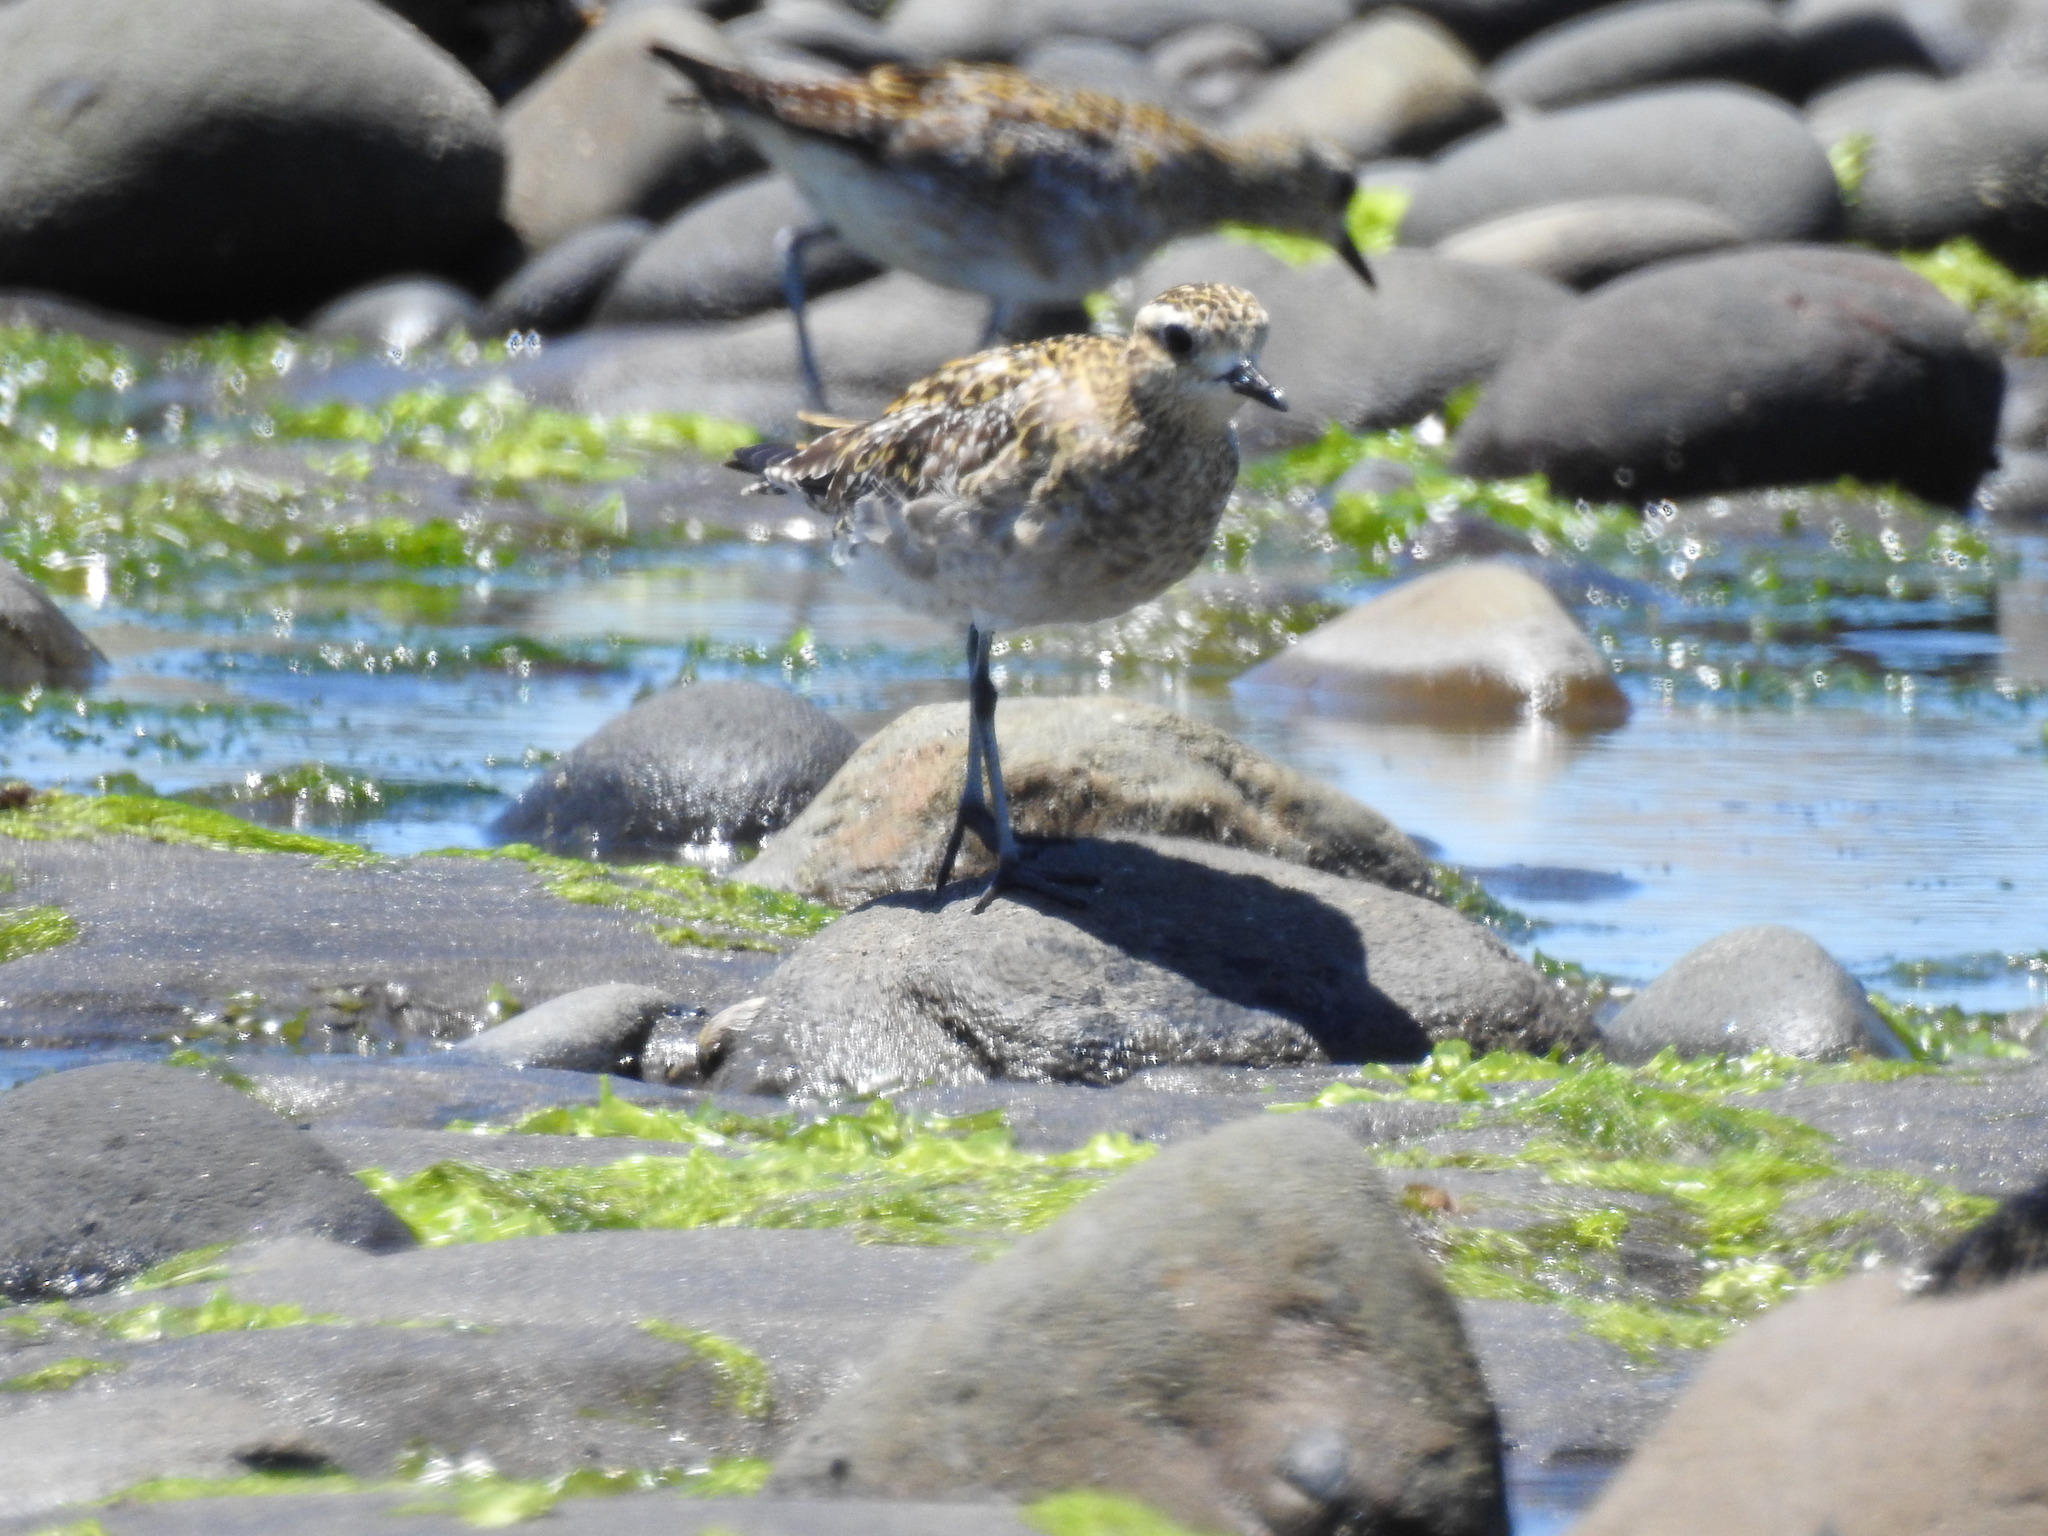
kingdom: Animalia
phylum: Chordata
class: Aves
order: Charadriiformes
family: Charadriidae
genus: Pluvialis
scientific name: Pluvialis fulva
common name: Pacific golden plover
